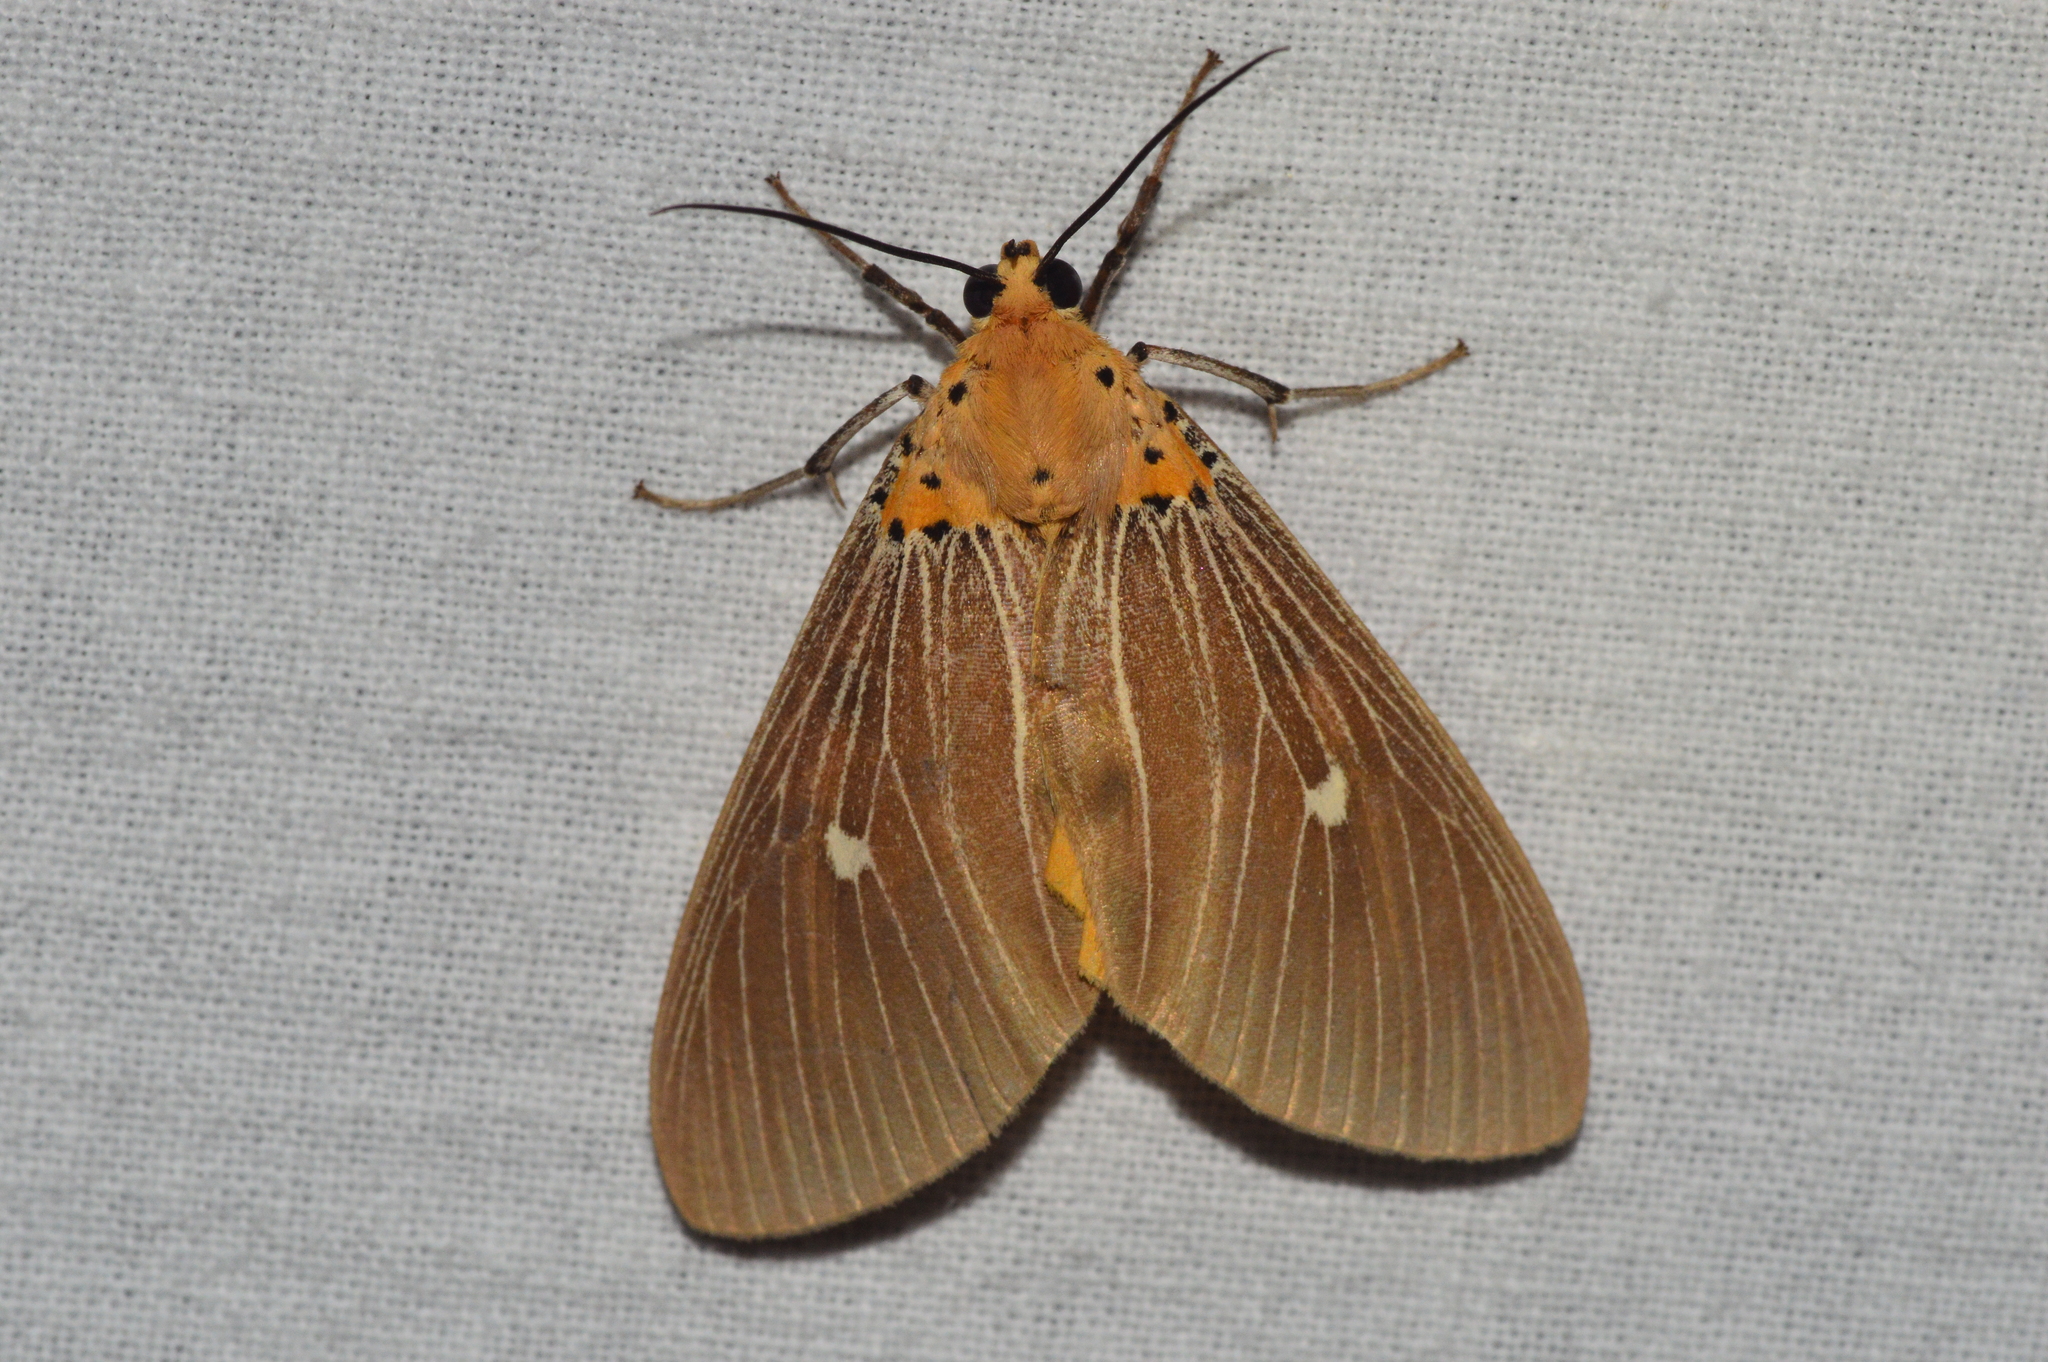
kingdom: Animalia
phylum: Arthropoda
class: Insecta
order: Lepidoptera
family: Erebidae
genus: Asota
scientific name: Asota caricae
